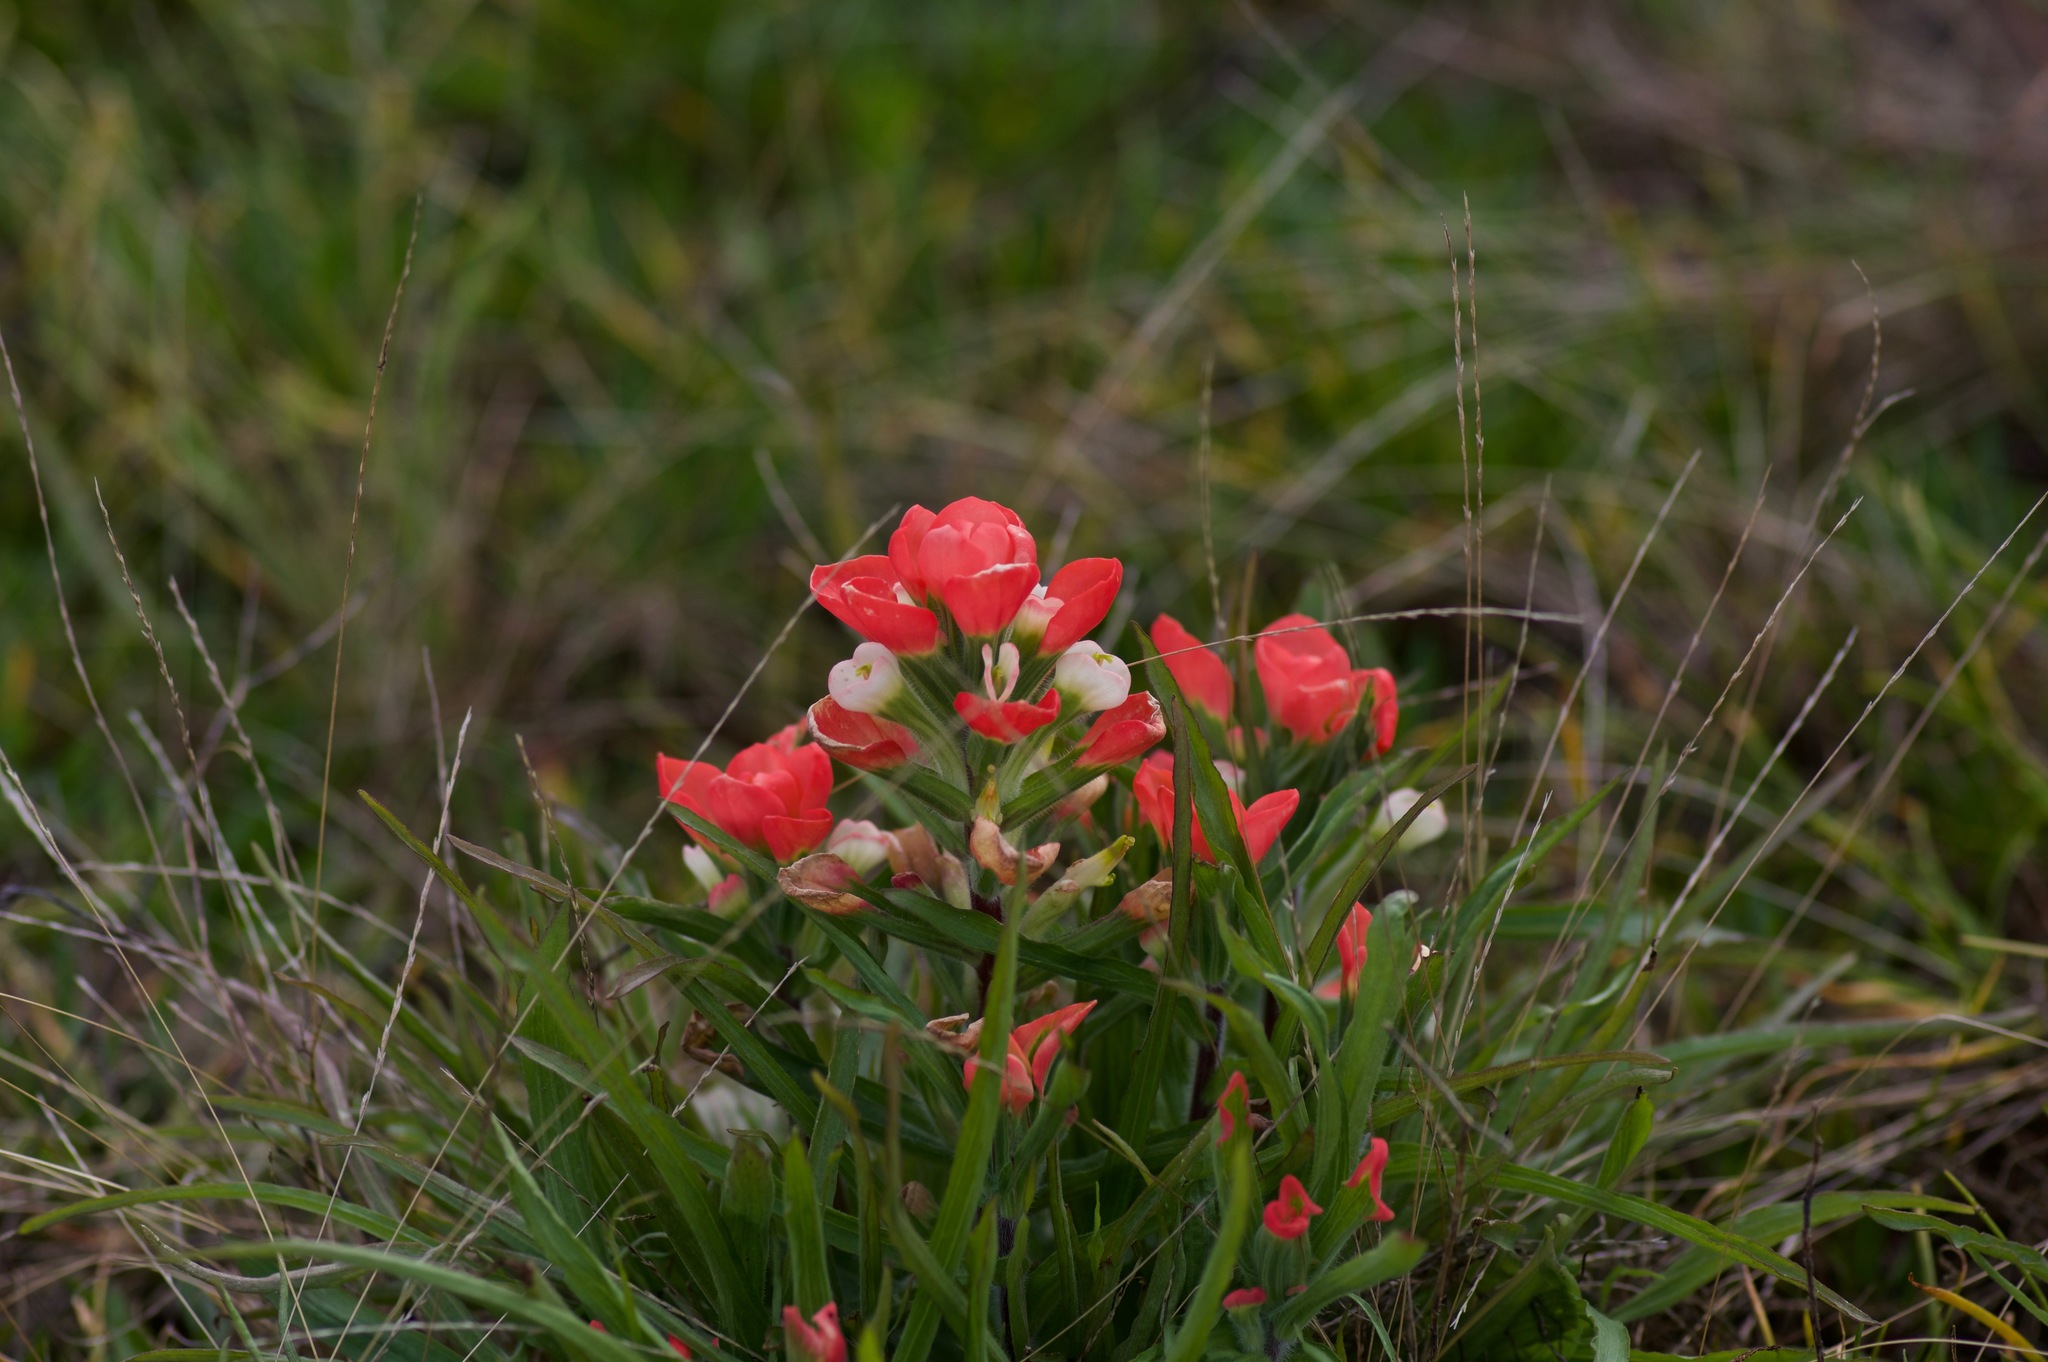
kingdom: Plantae
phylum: Tracheophyta
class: Magnoliopsida
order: Lamiales
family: Orobanchaceae
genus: Castilleja
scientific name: Castilleja indivisa
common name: Texas paintbrush
